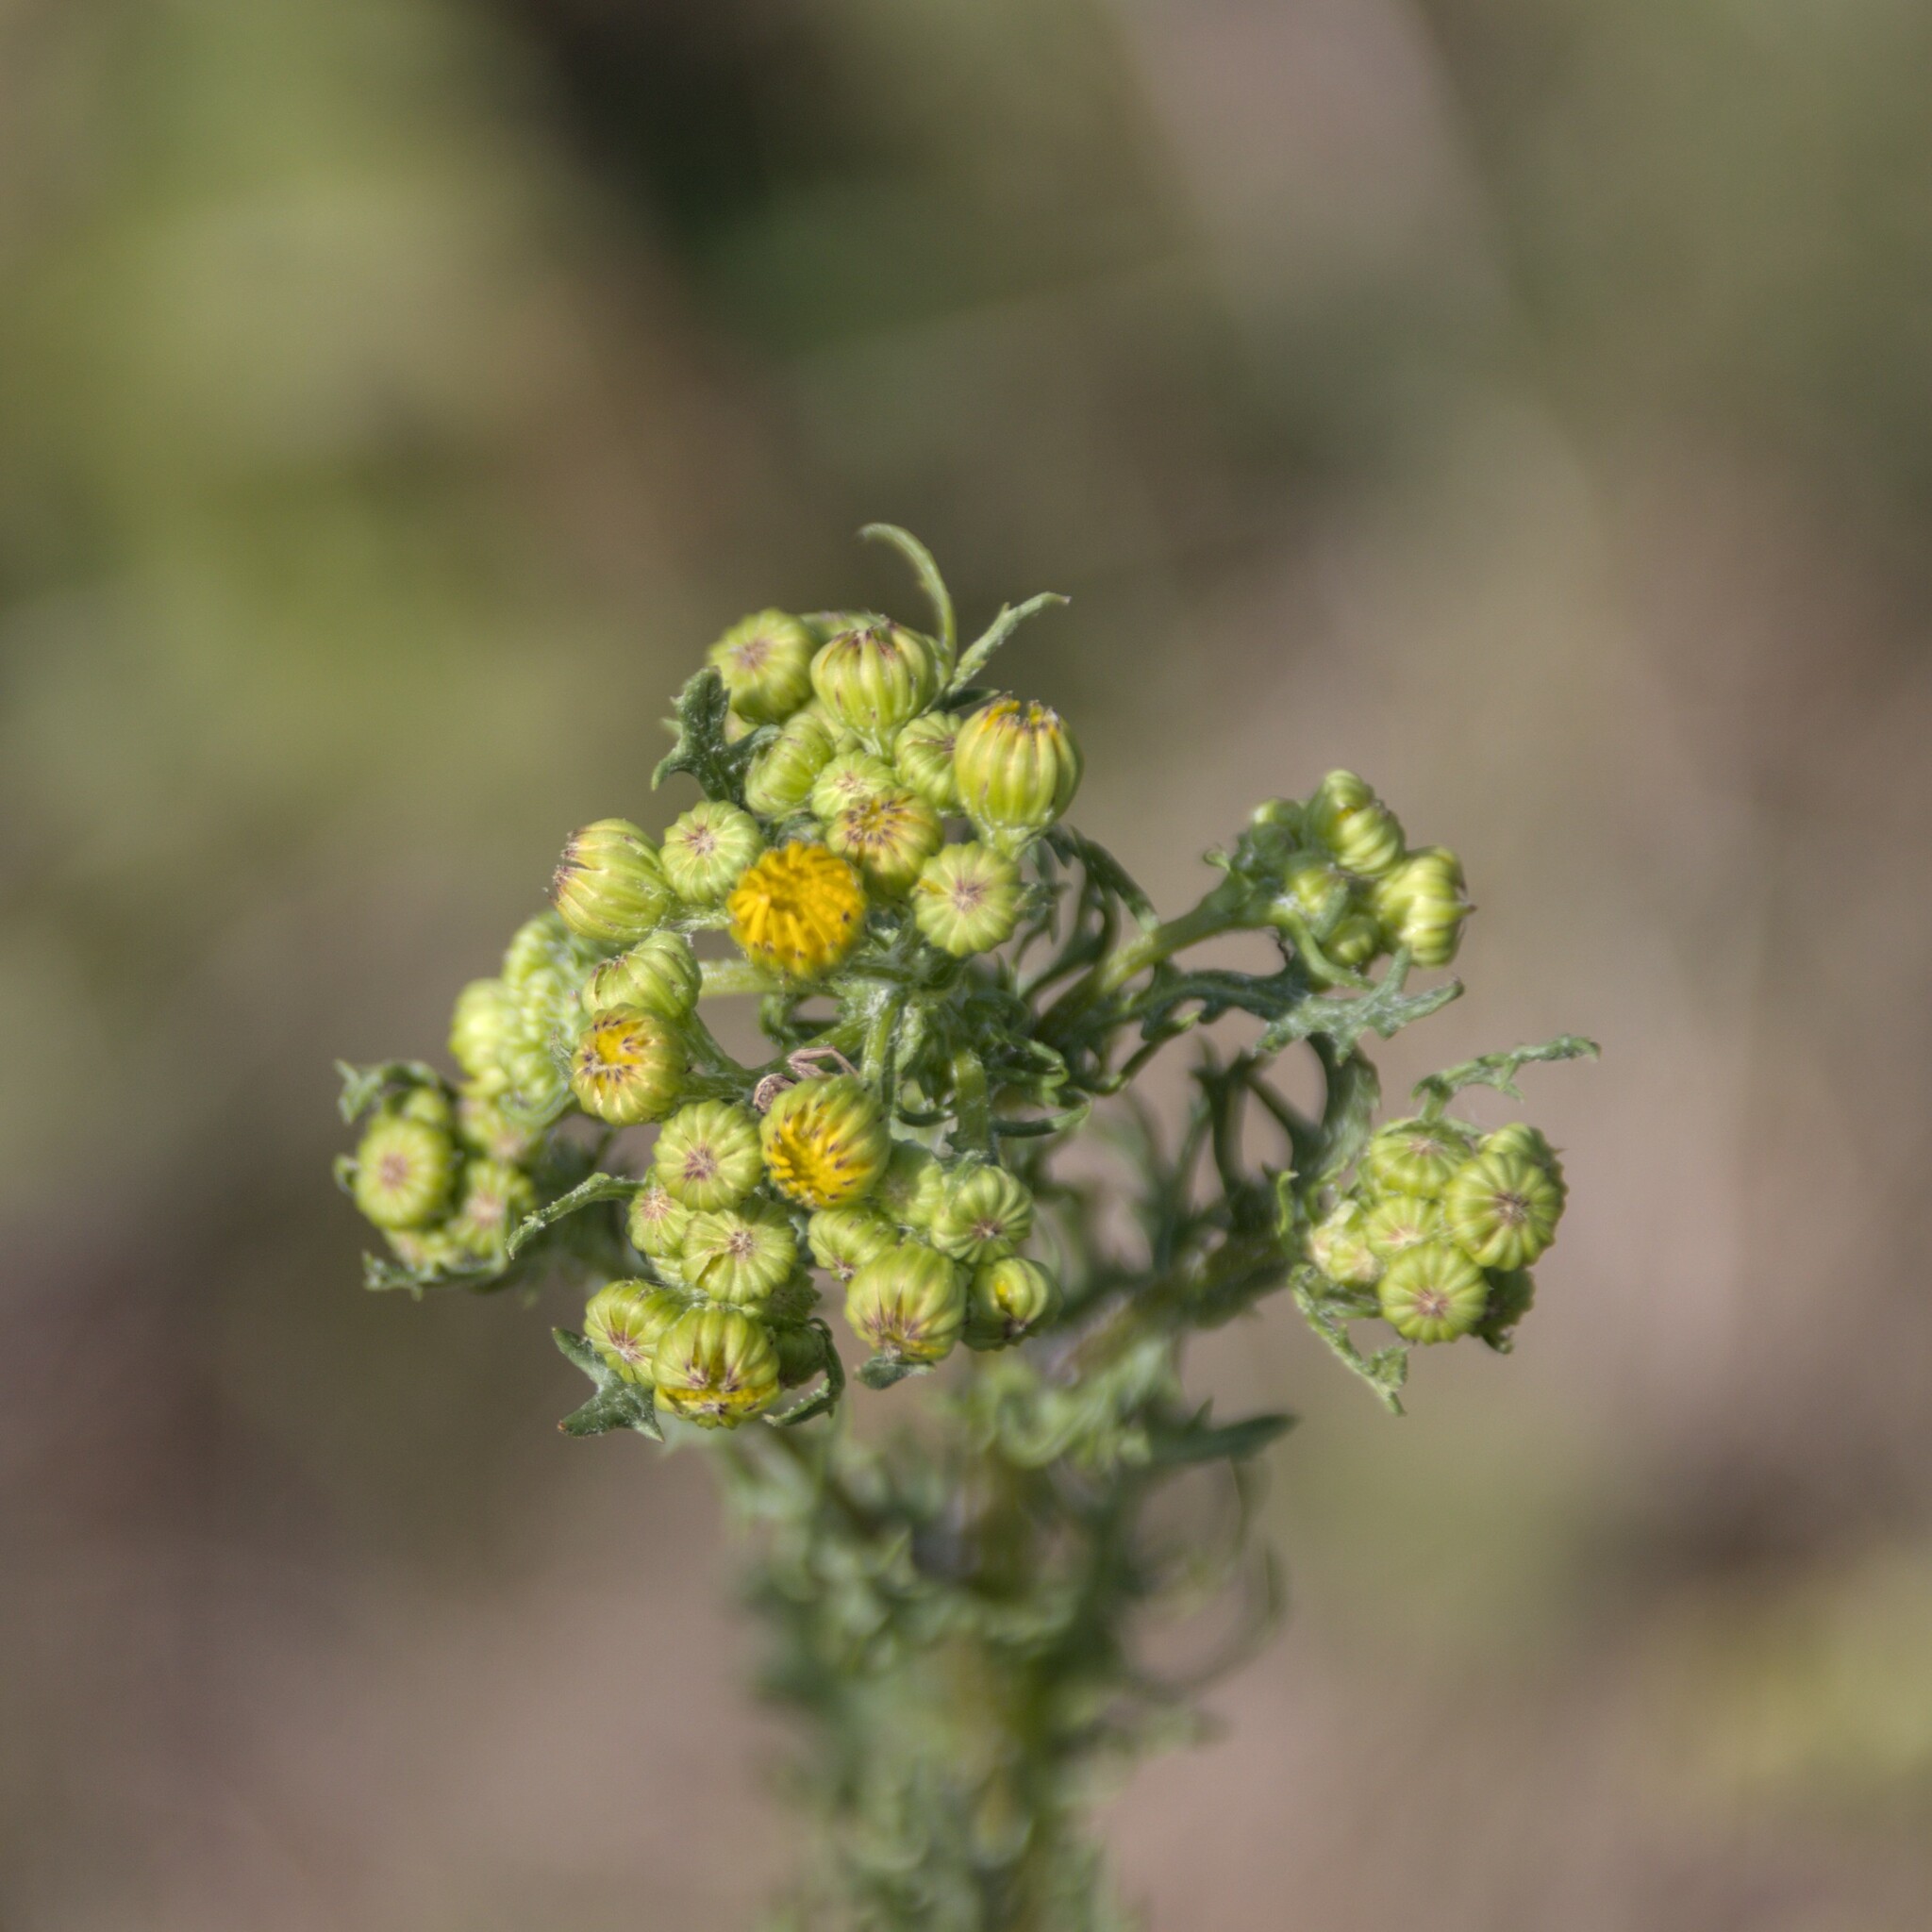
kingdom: Plantae
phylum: Tracheophyta
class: Magnoliopsida
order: Asterales
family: Asteraceae
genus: Tanacetum
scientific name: Tanacetum vulgare
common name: Common tansy
